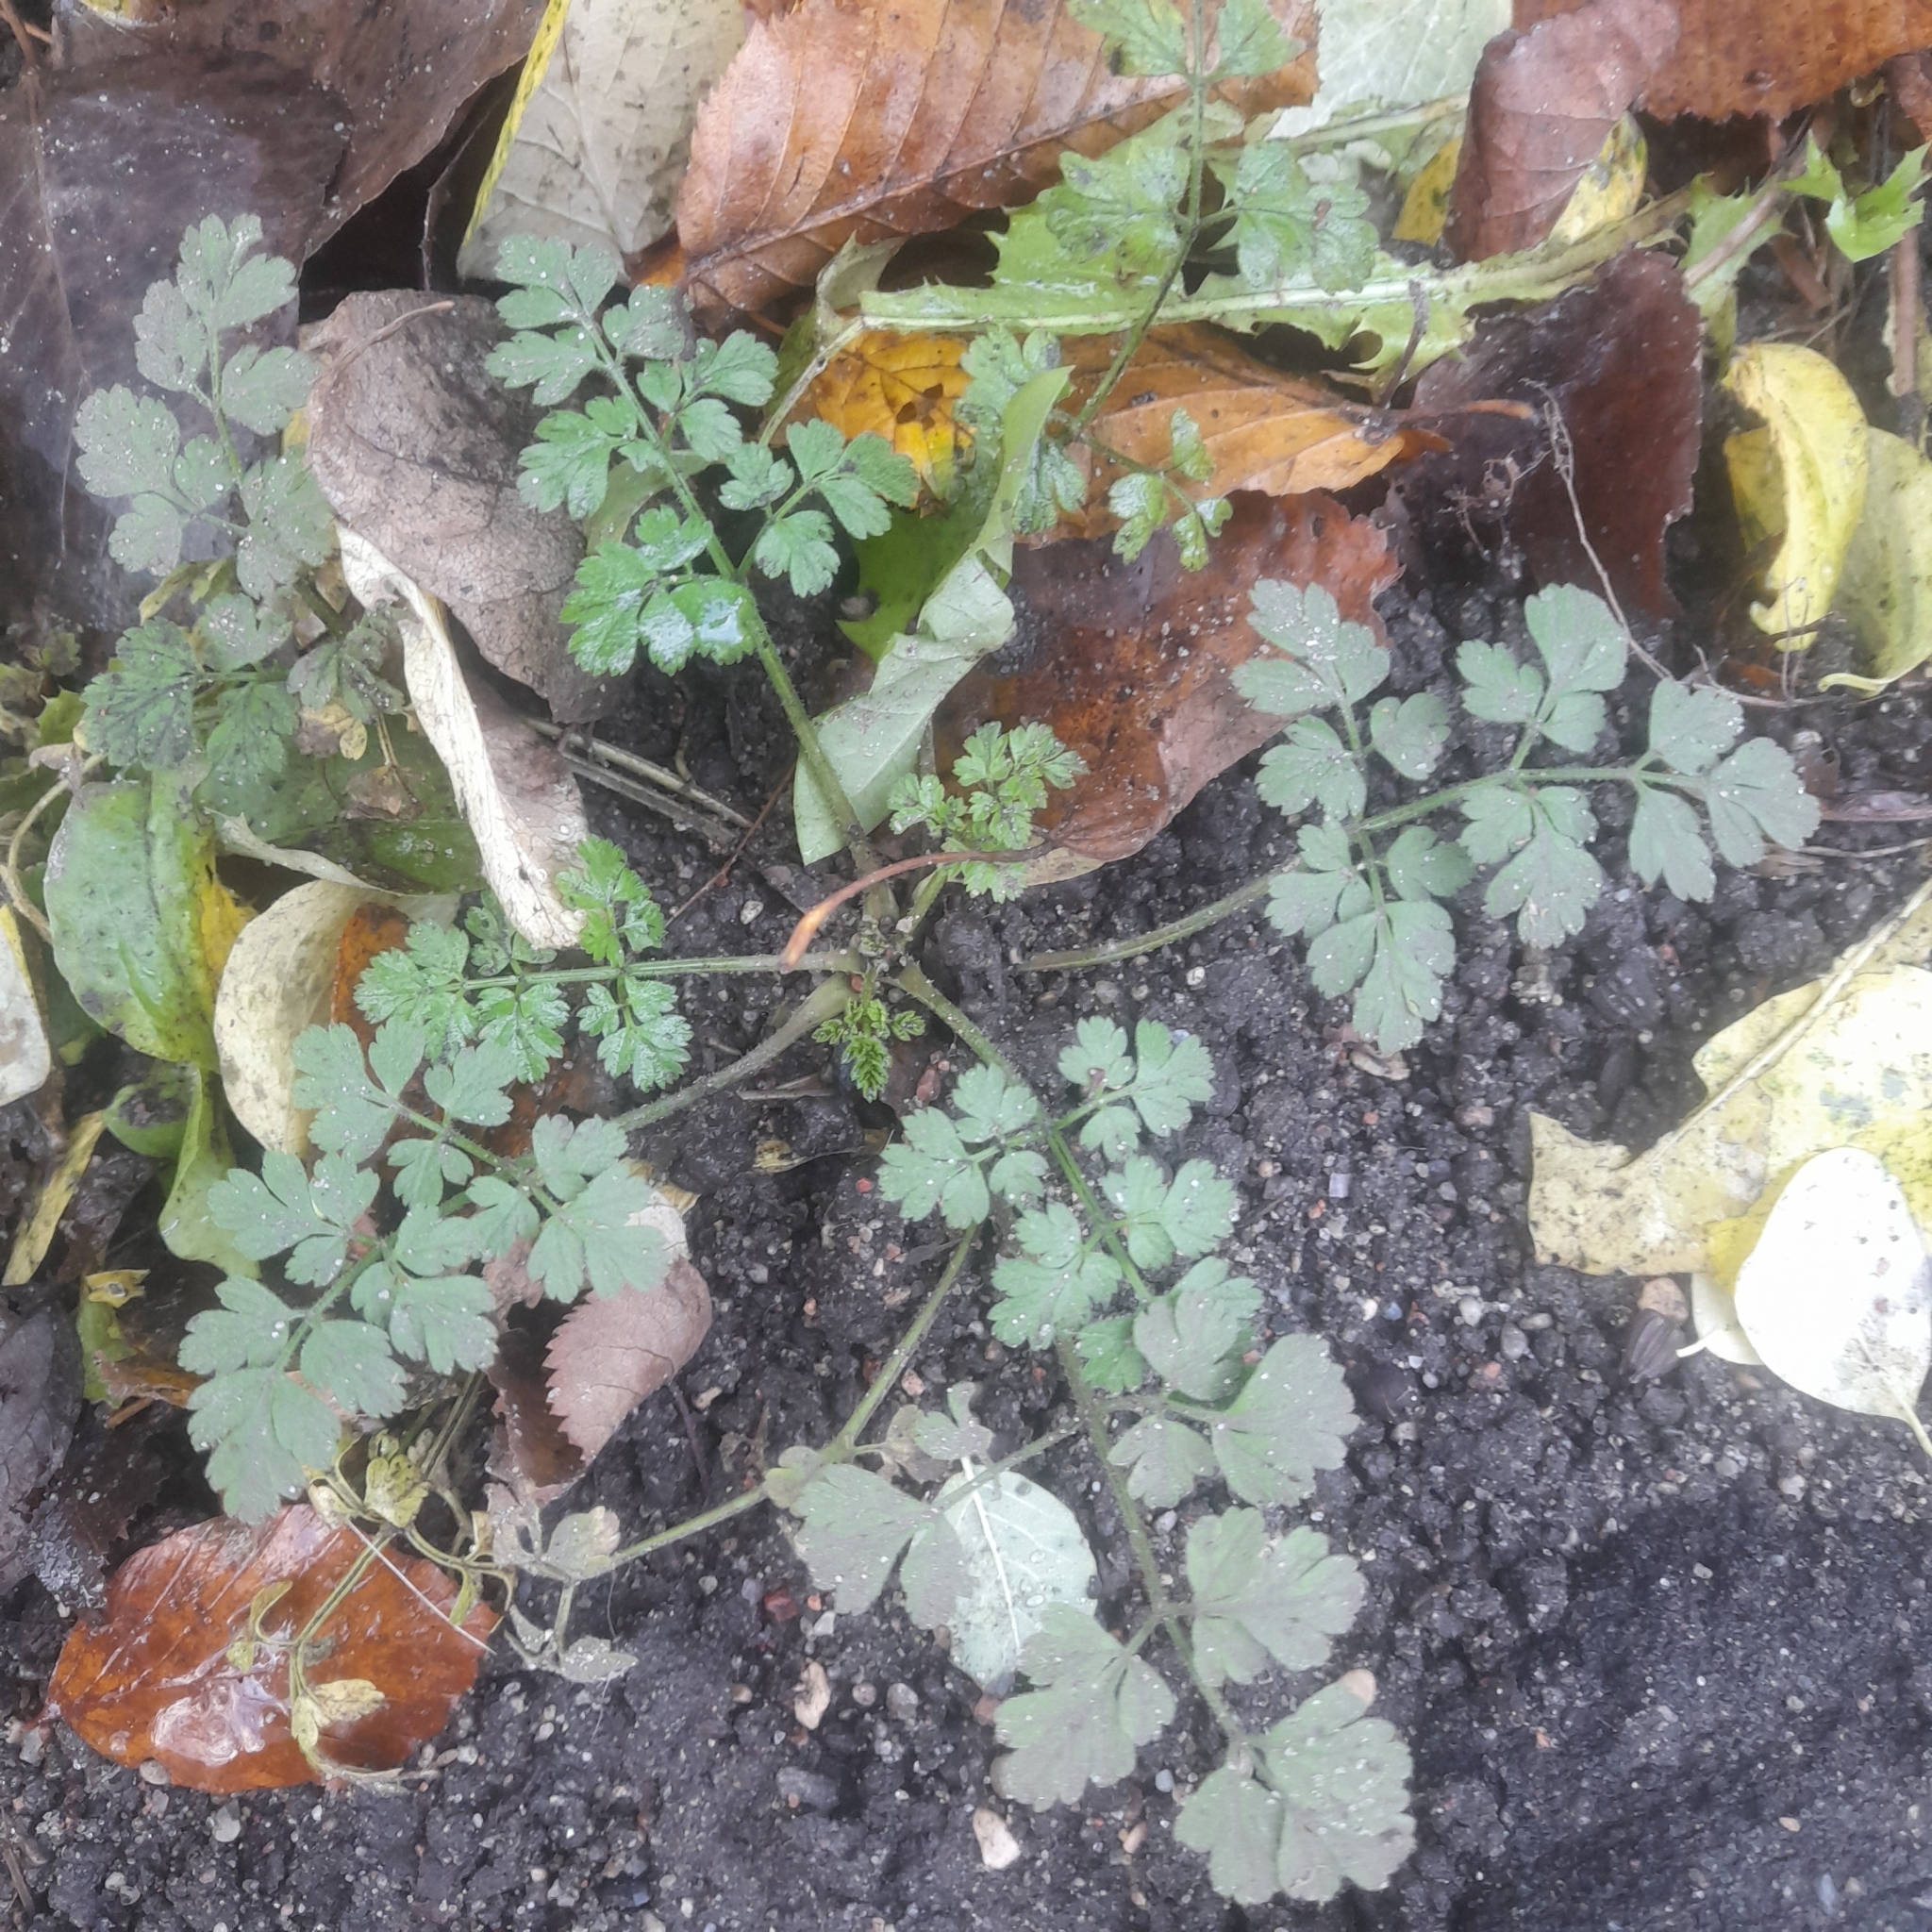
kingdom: Plantae
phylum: Tracheophyta
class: Magnoliopsida
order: Apiales
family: Apiaceae
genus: Chaerophyllum
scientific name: Chaerophyllum temulum
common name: Rough chervil
